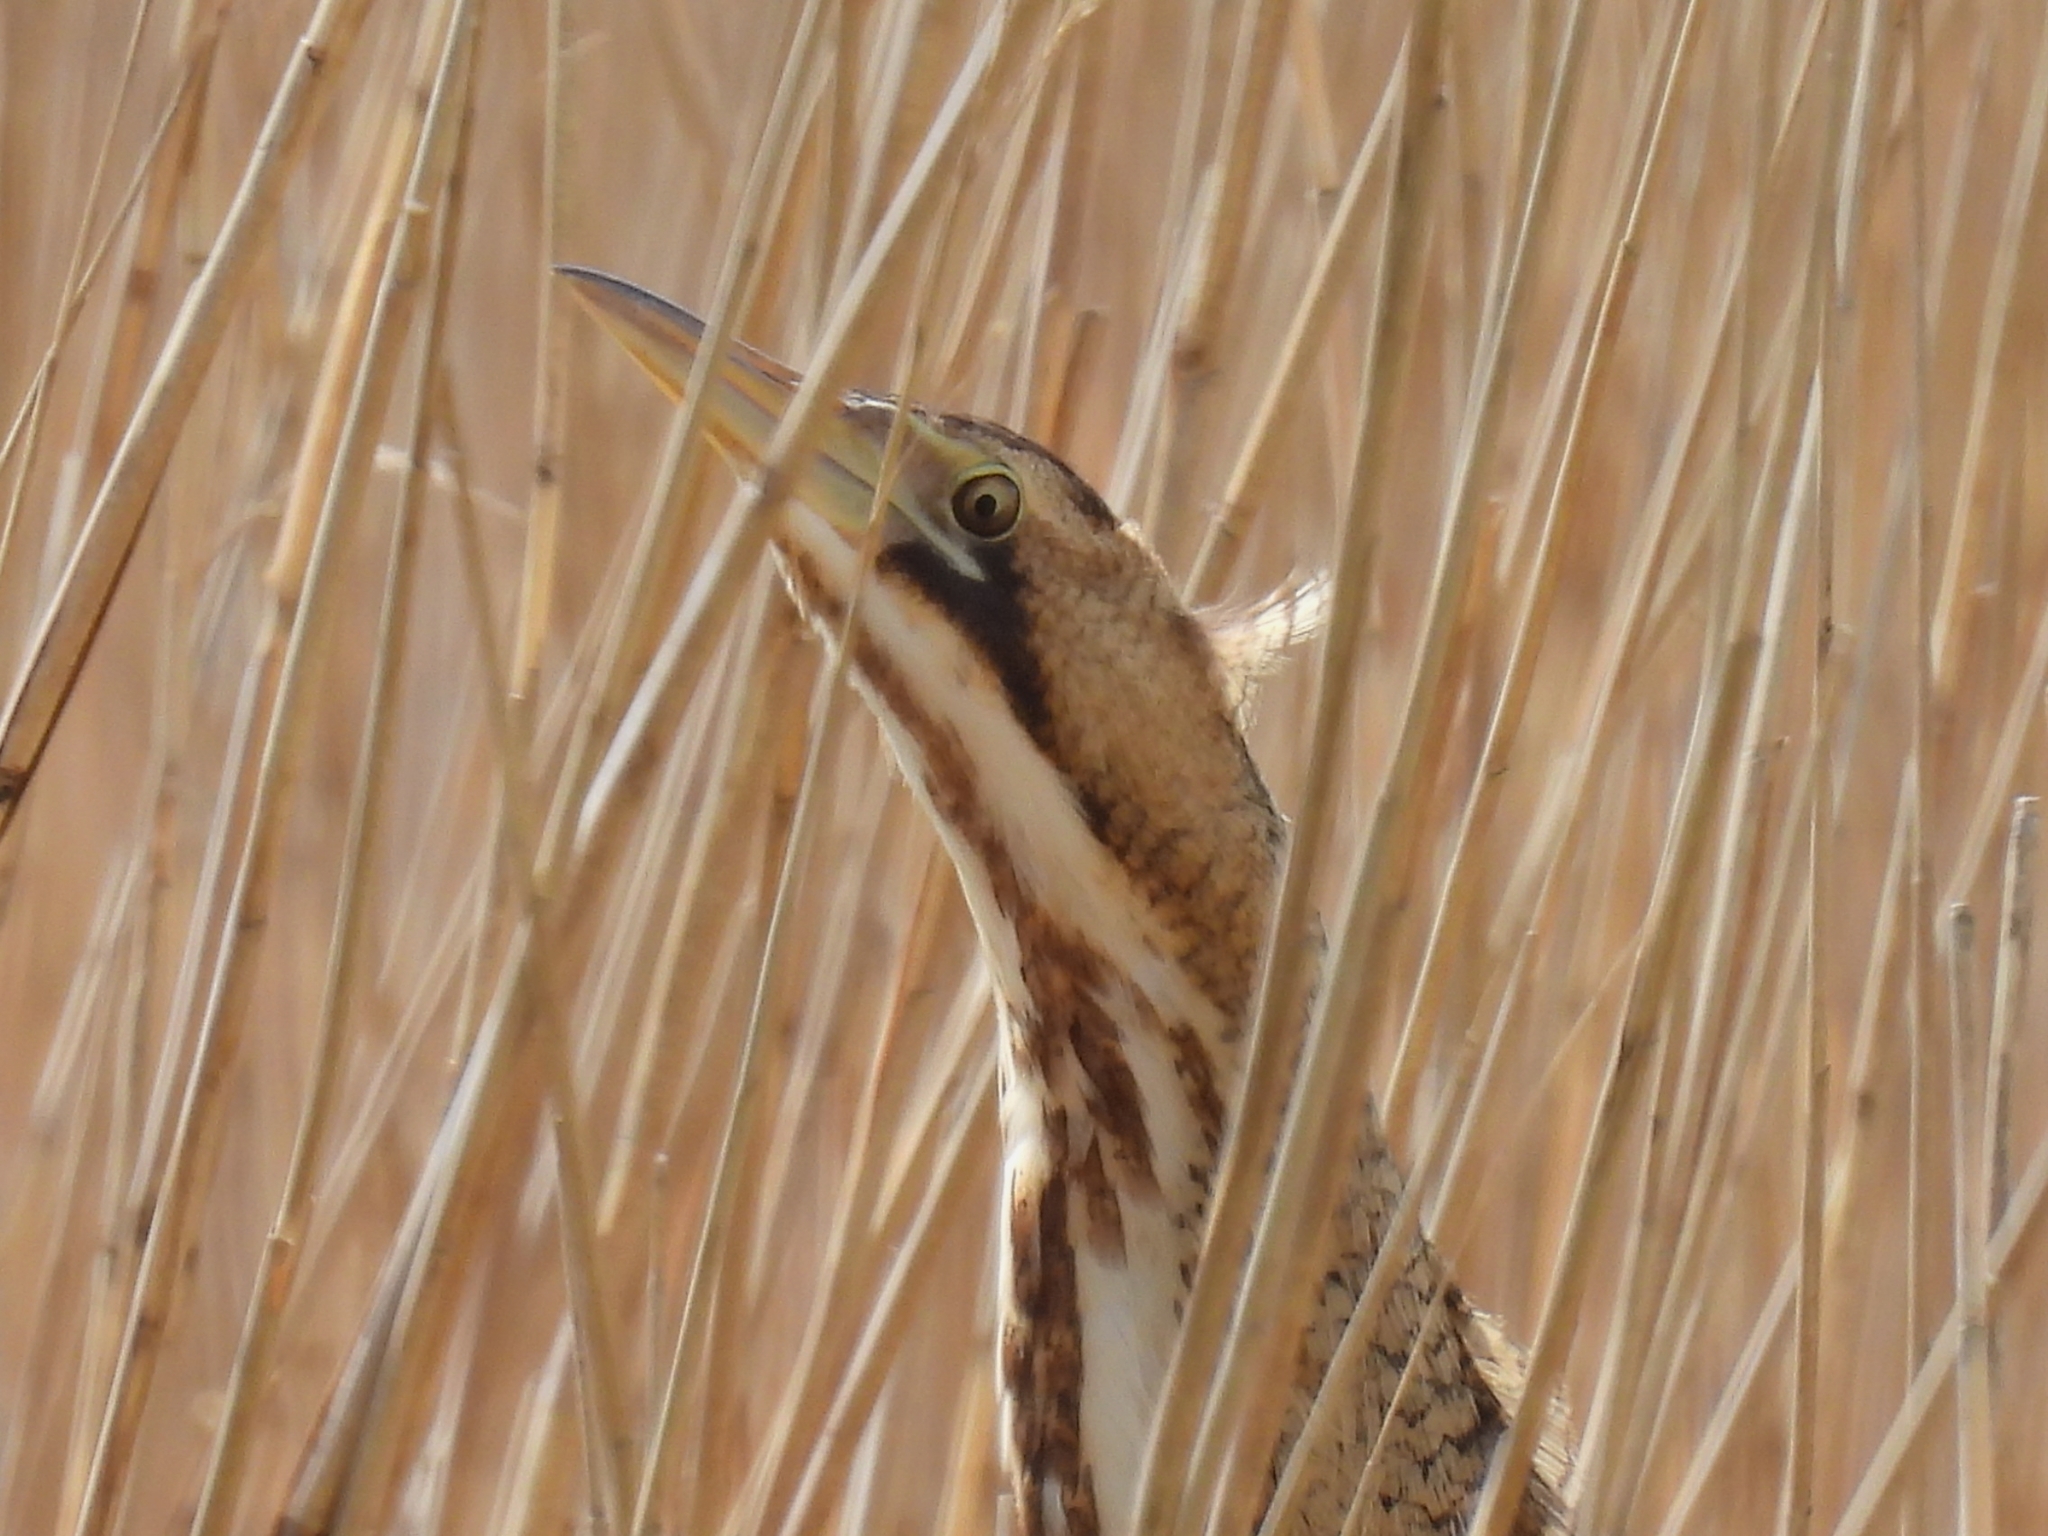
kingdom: Animalia
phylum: Chordata
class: Aves
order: Pelecaniformes
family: Ardeidae
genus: Botaurus
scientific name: Botaurus stellaris
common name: Eurasian bittern
